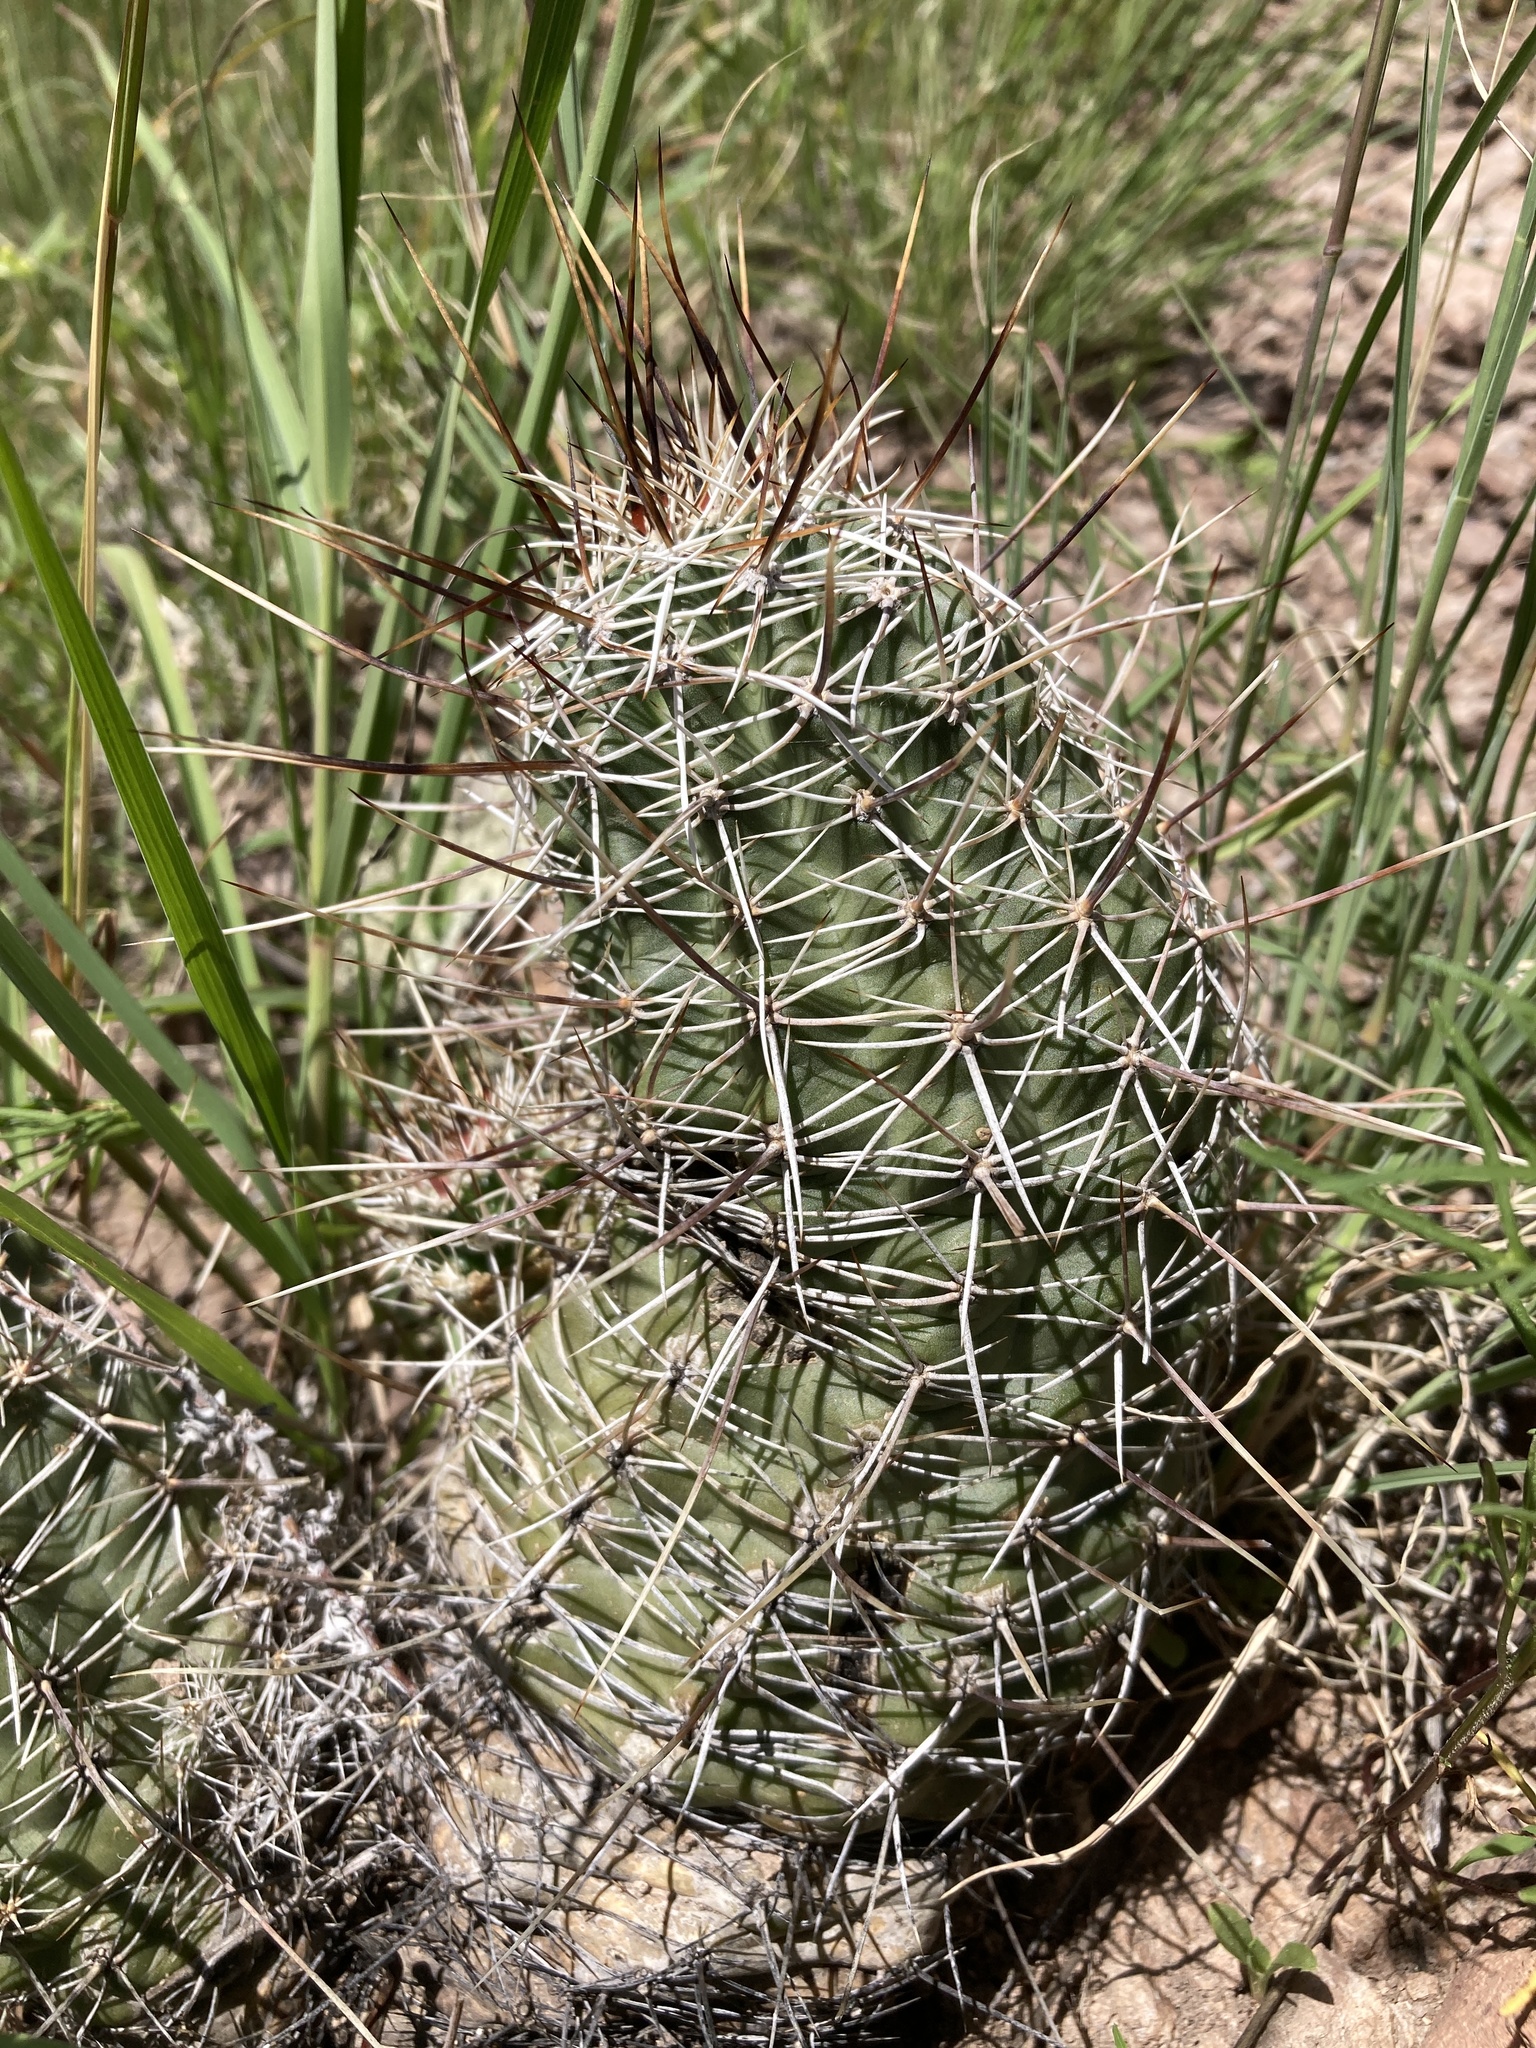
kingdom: Plantae
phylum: Tracheophyta
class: Magnoliopsida
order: Caryophyllales
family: Cactaceae
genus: Echinocereus
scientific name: Echinocereus fendleri
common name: Fendler's hedgehog cactus
